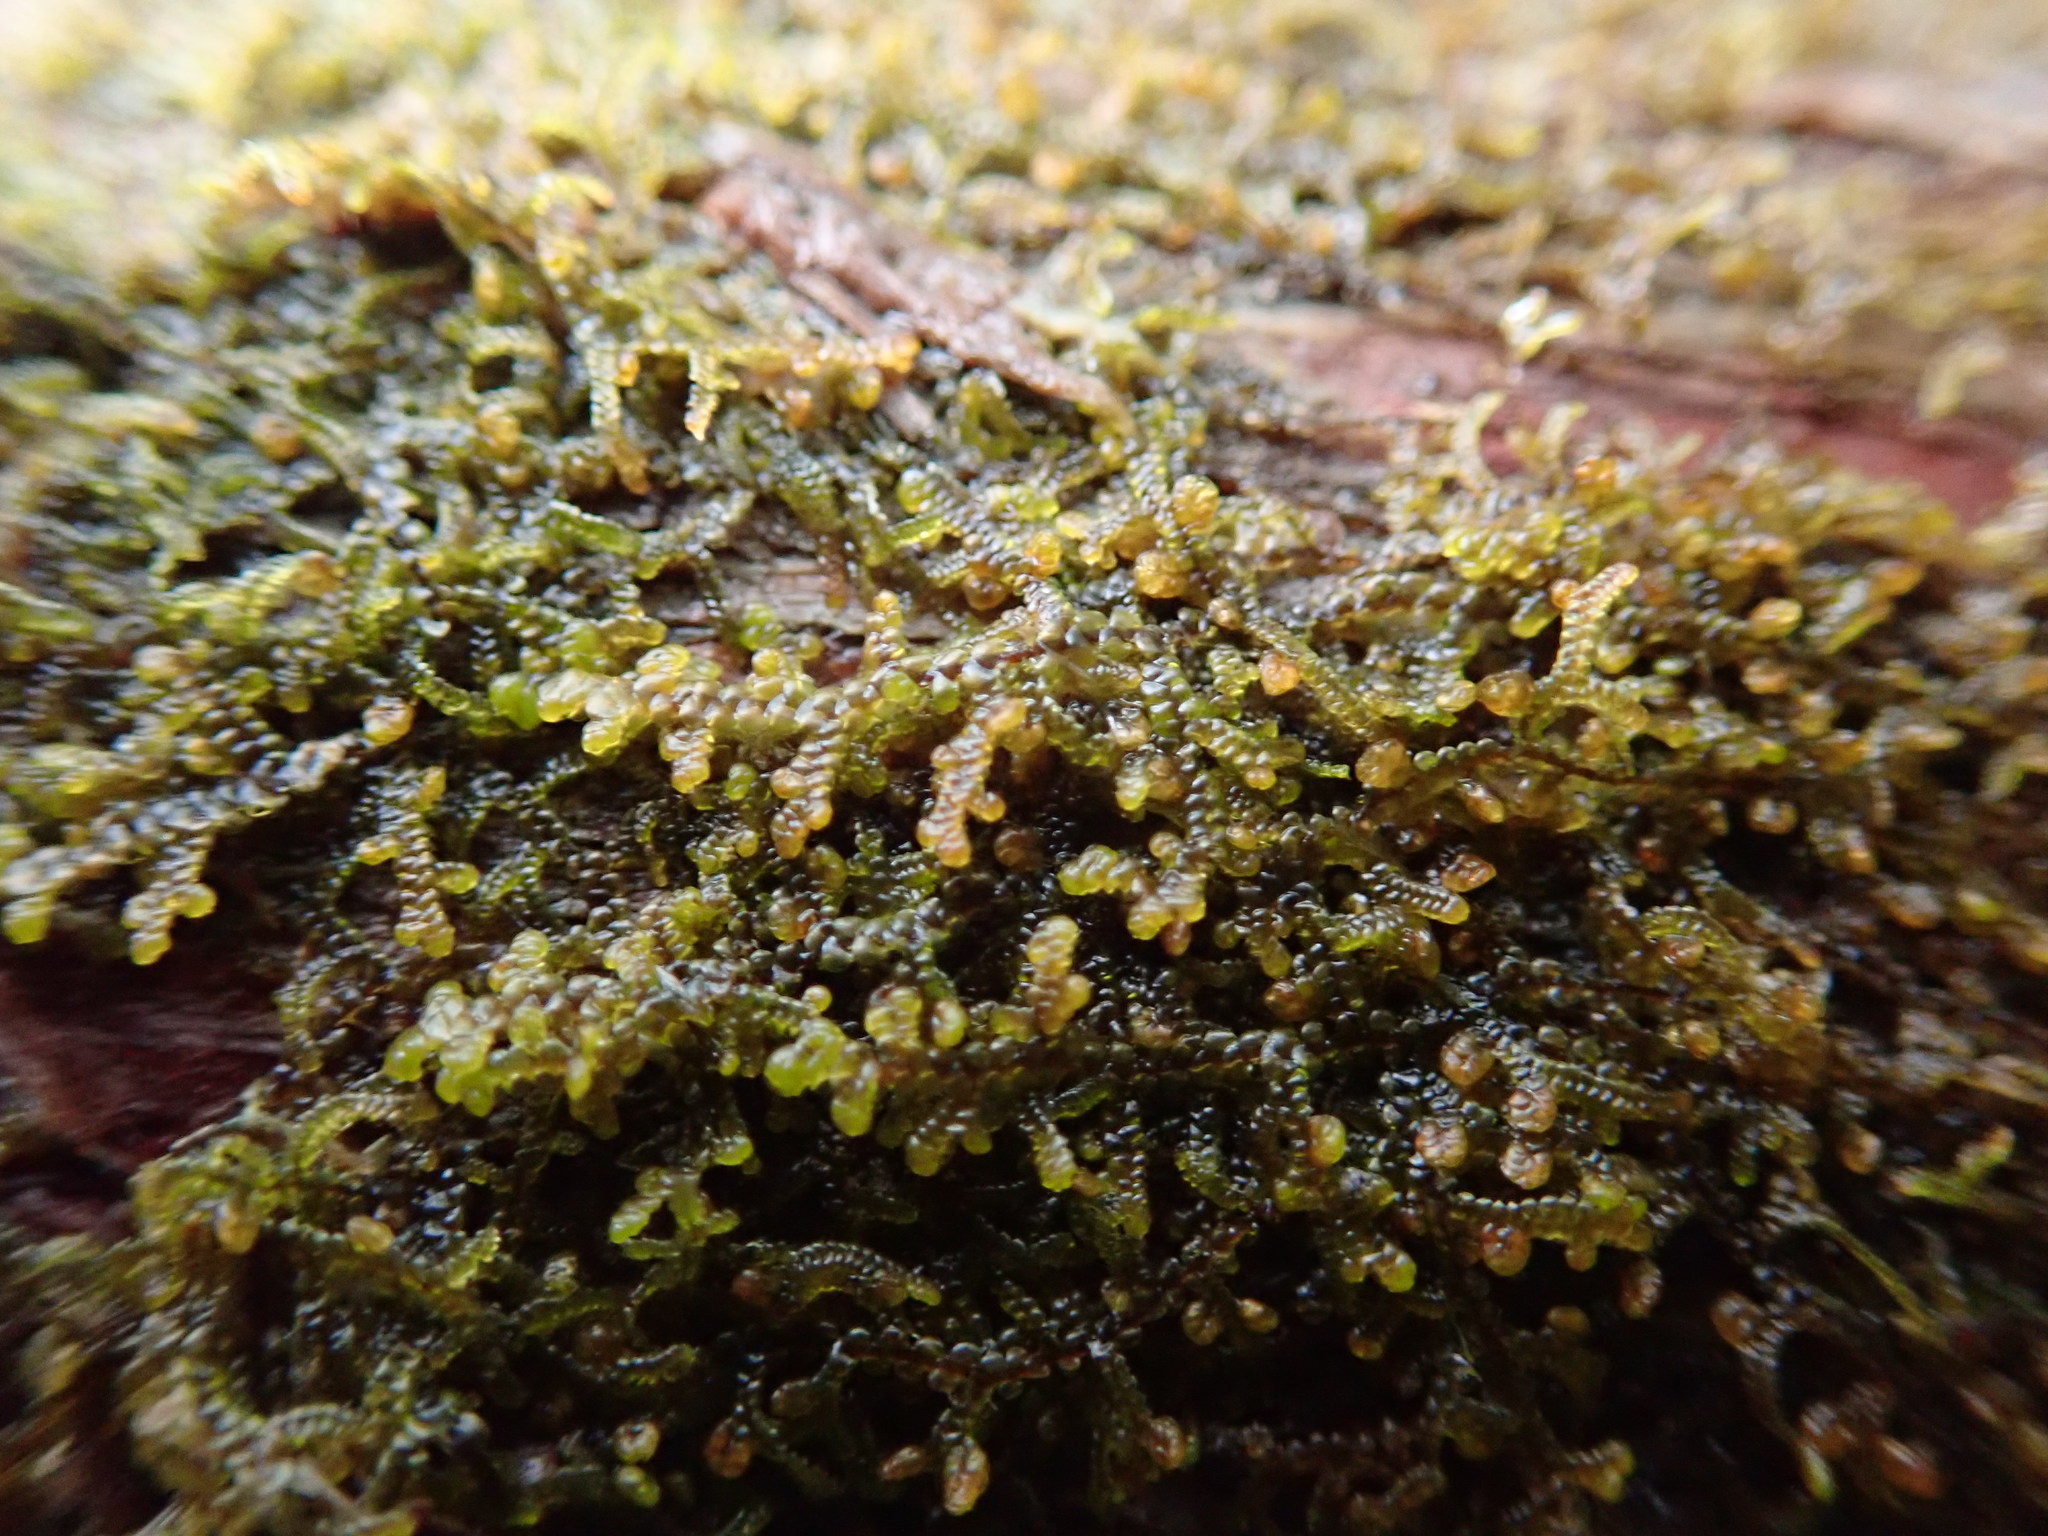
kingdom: Plantae
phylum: Marchantiophyta
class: Jungermanniopsida
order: Porellales
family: Frullaniaceae
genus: Frullania
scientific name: Frullania nisquallensis
